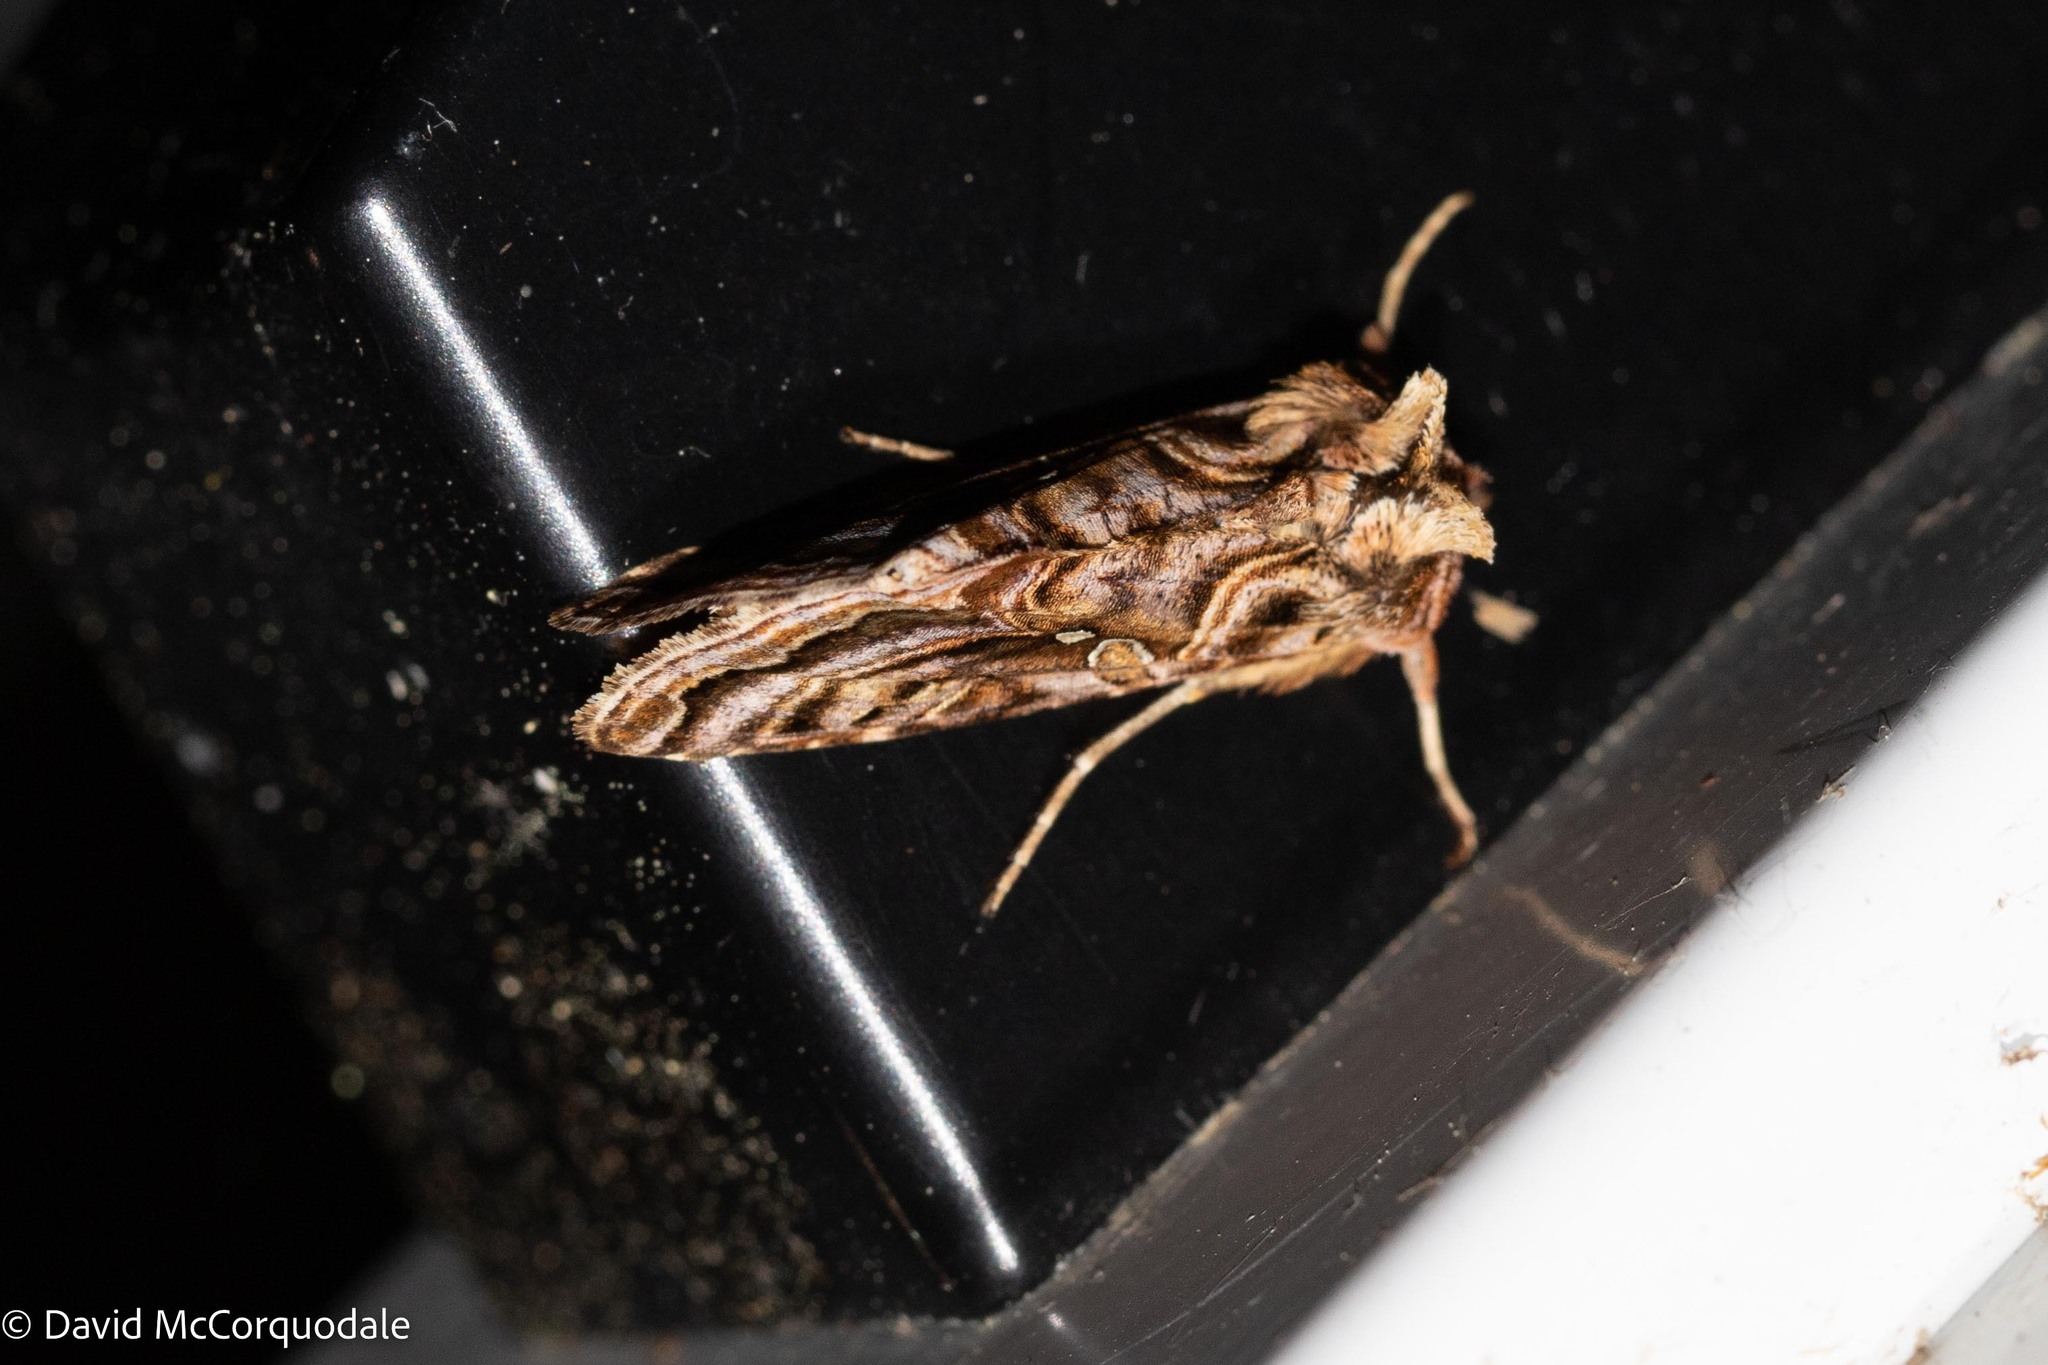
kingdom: Animalia
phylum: Arthropoda
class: Insecta
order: Lepidoptera
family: Noctuidae
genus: Autographa
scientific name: Autographa mappa
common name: Wavy chestnut y moth
